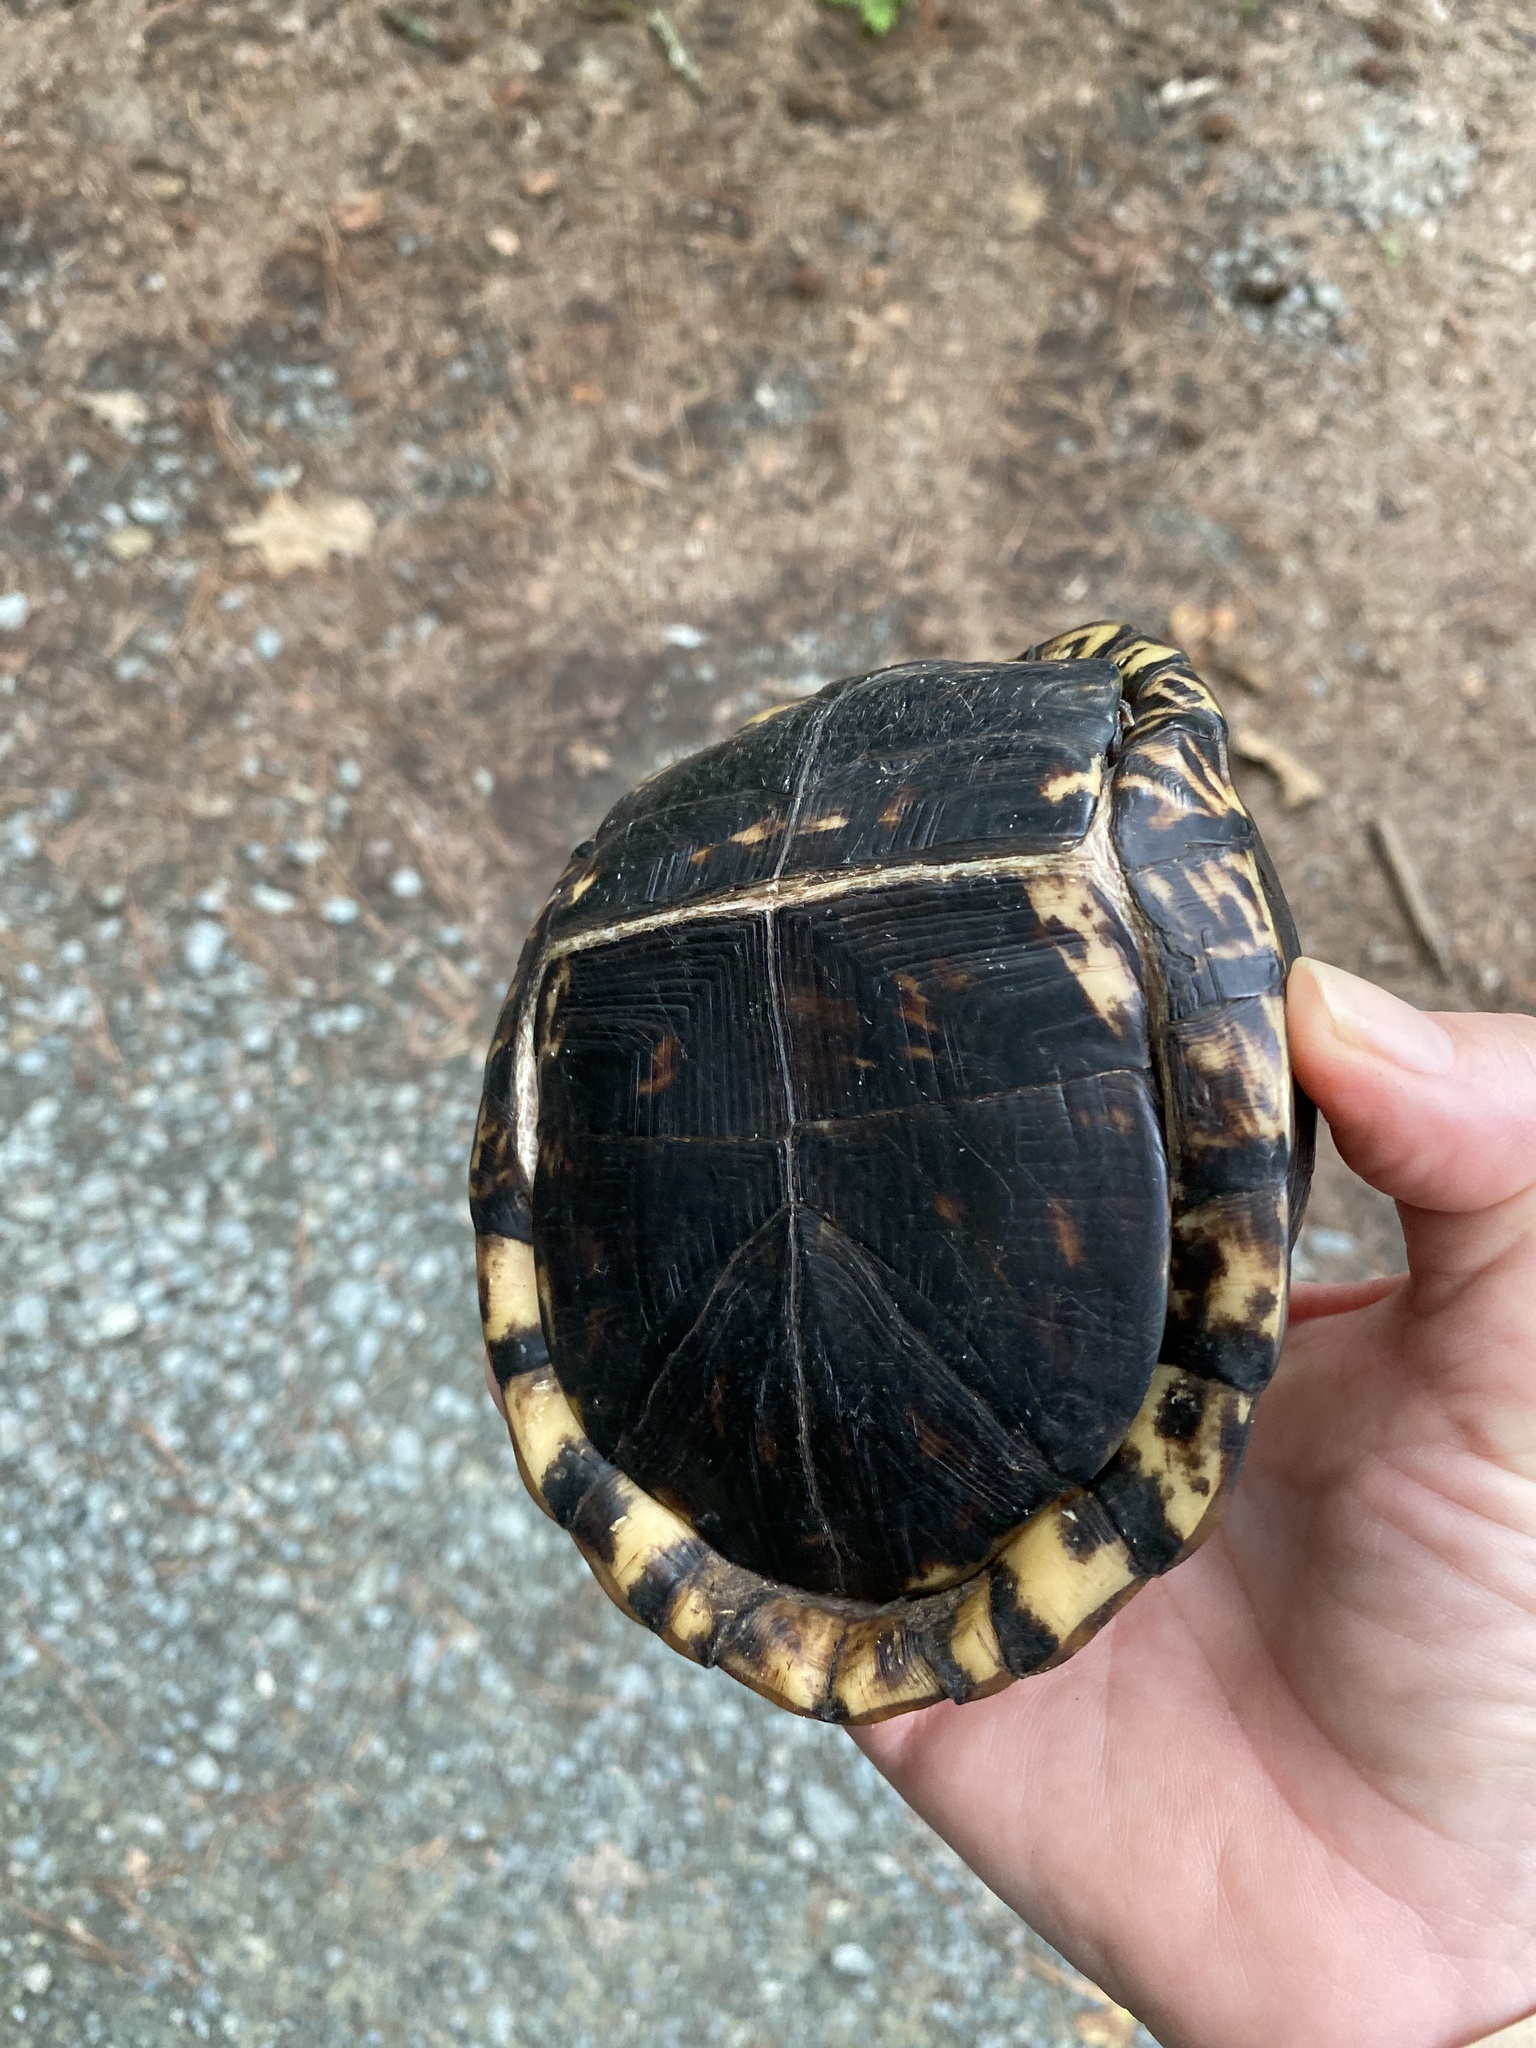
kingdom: Animalia
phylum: Chordata
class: Testudines
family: Emydidae
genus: Terrapene
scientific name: Terrapene carolina
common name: Common box turtle
